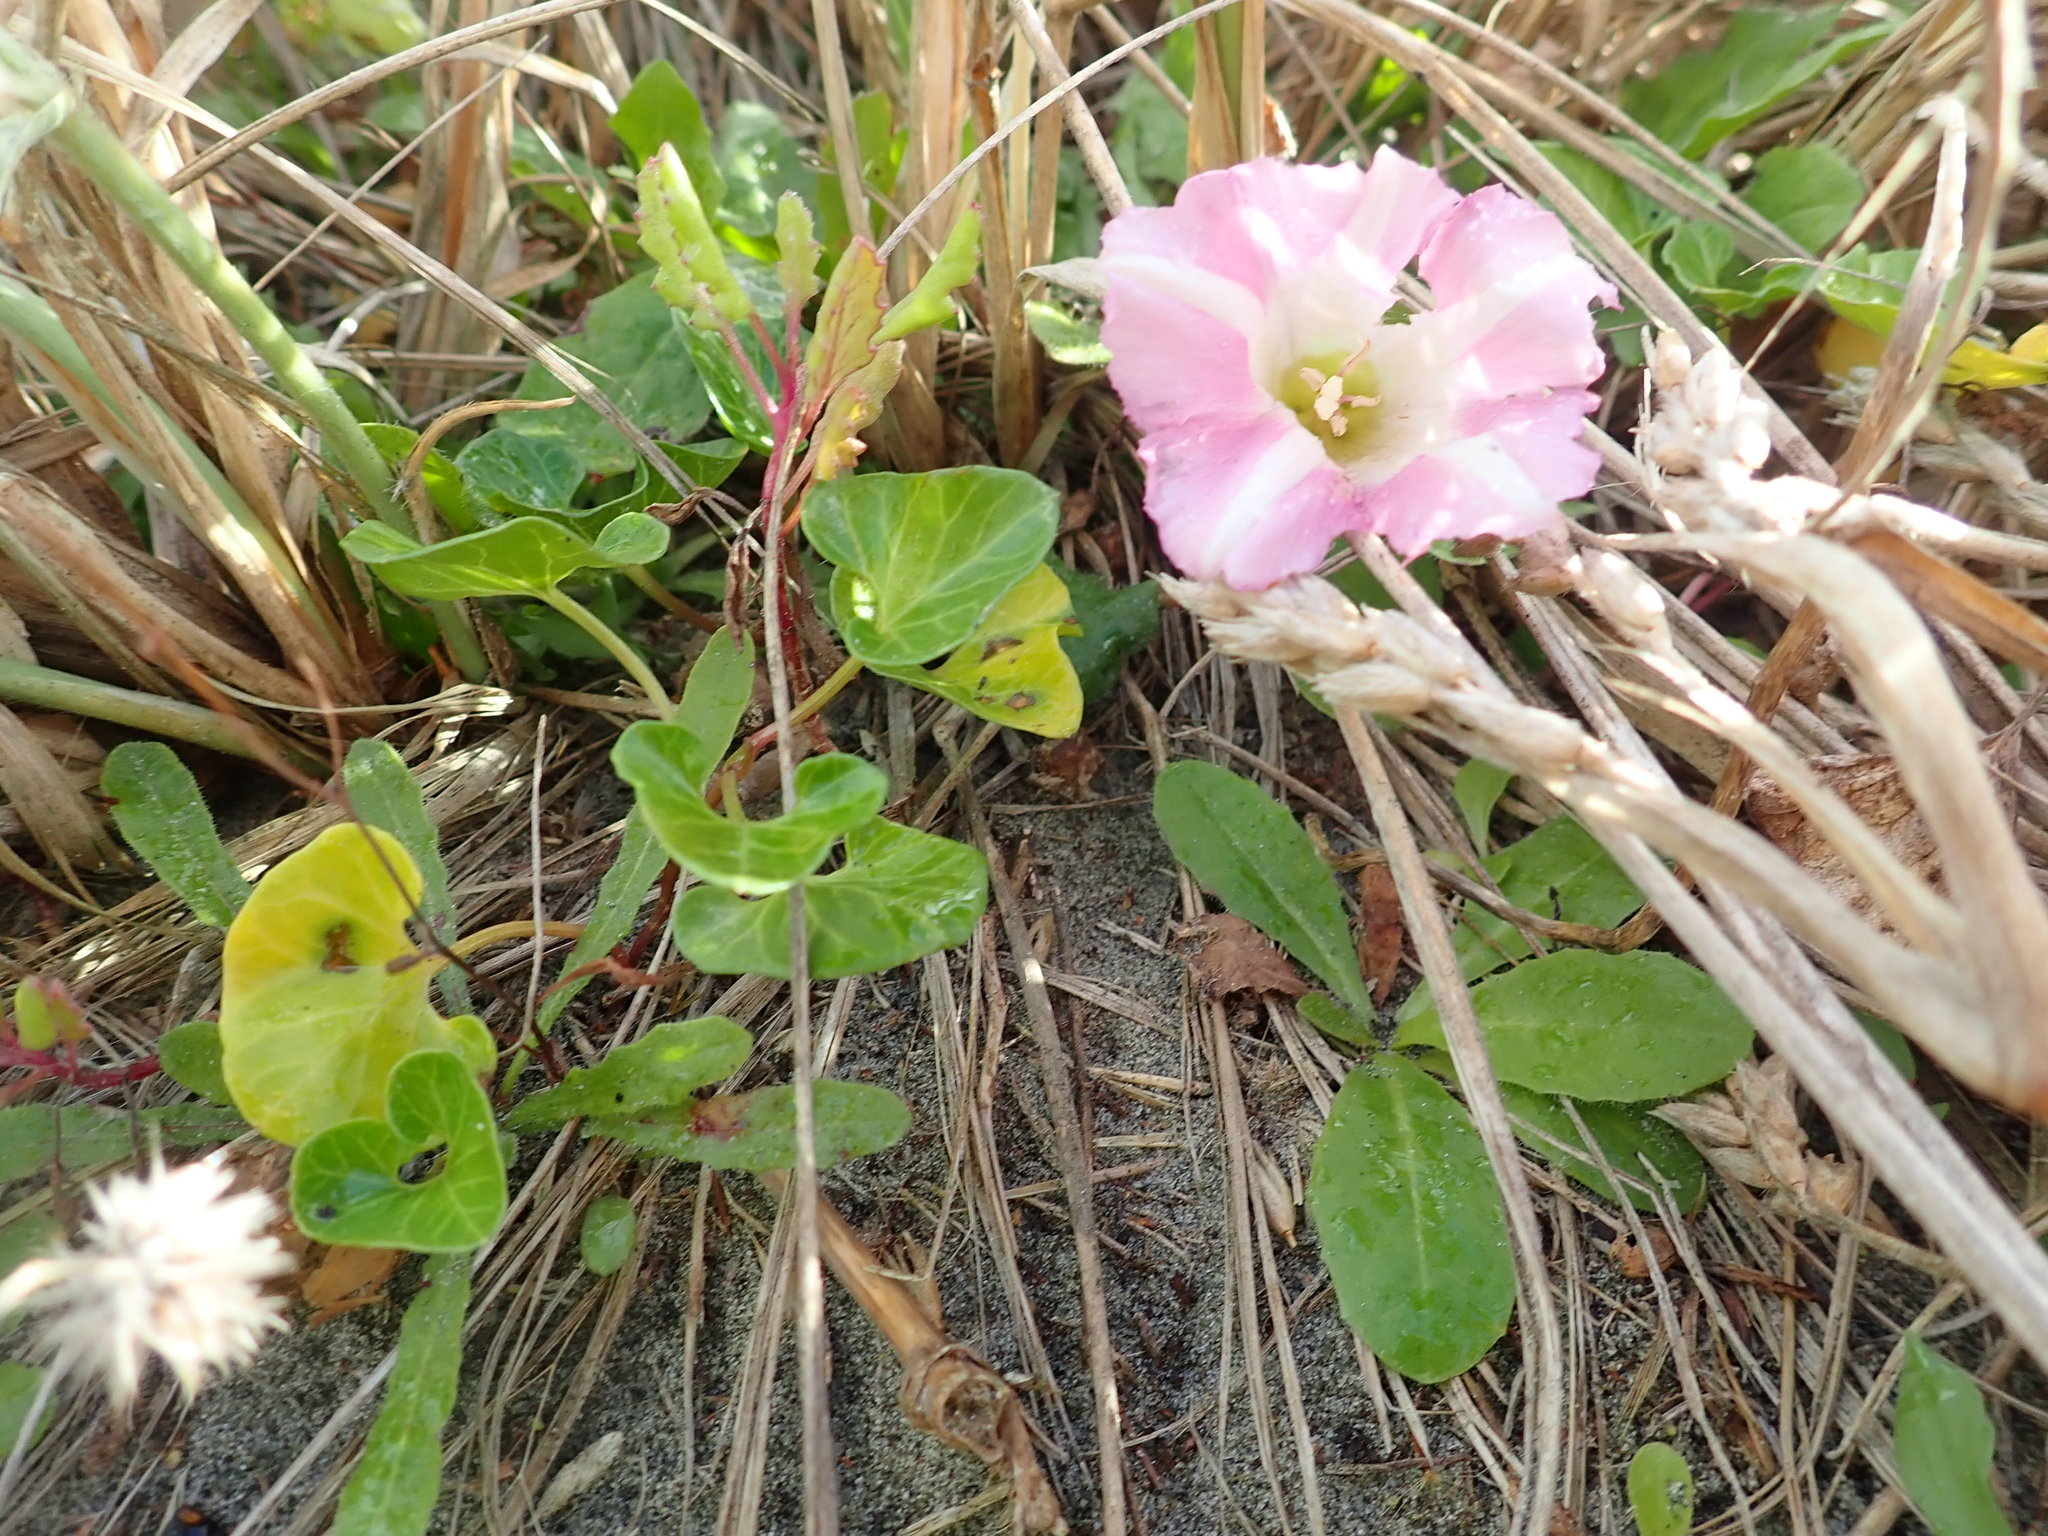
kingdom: Plantae
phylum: Tracheophyta
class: Magnoliopsida
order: Solanales
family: Convolvulaceae
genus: Calystegia
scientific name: Calystegia soldanella
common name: Sea bindweed
